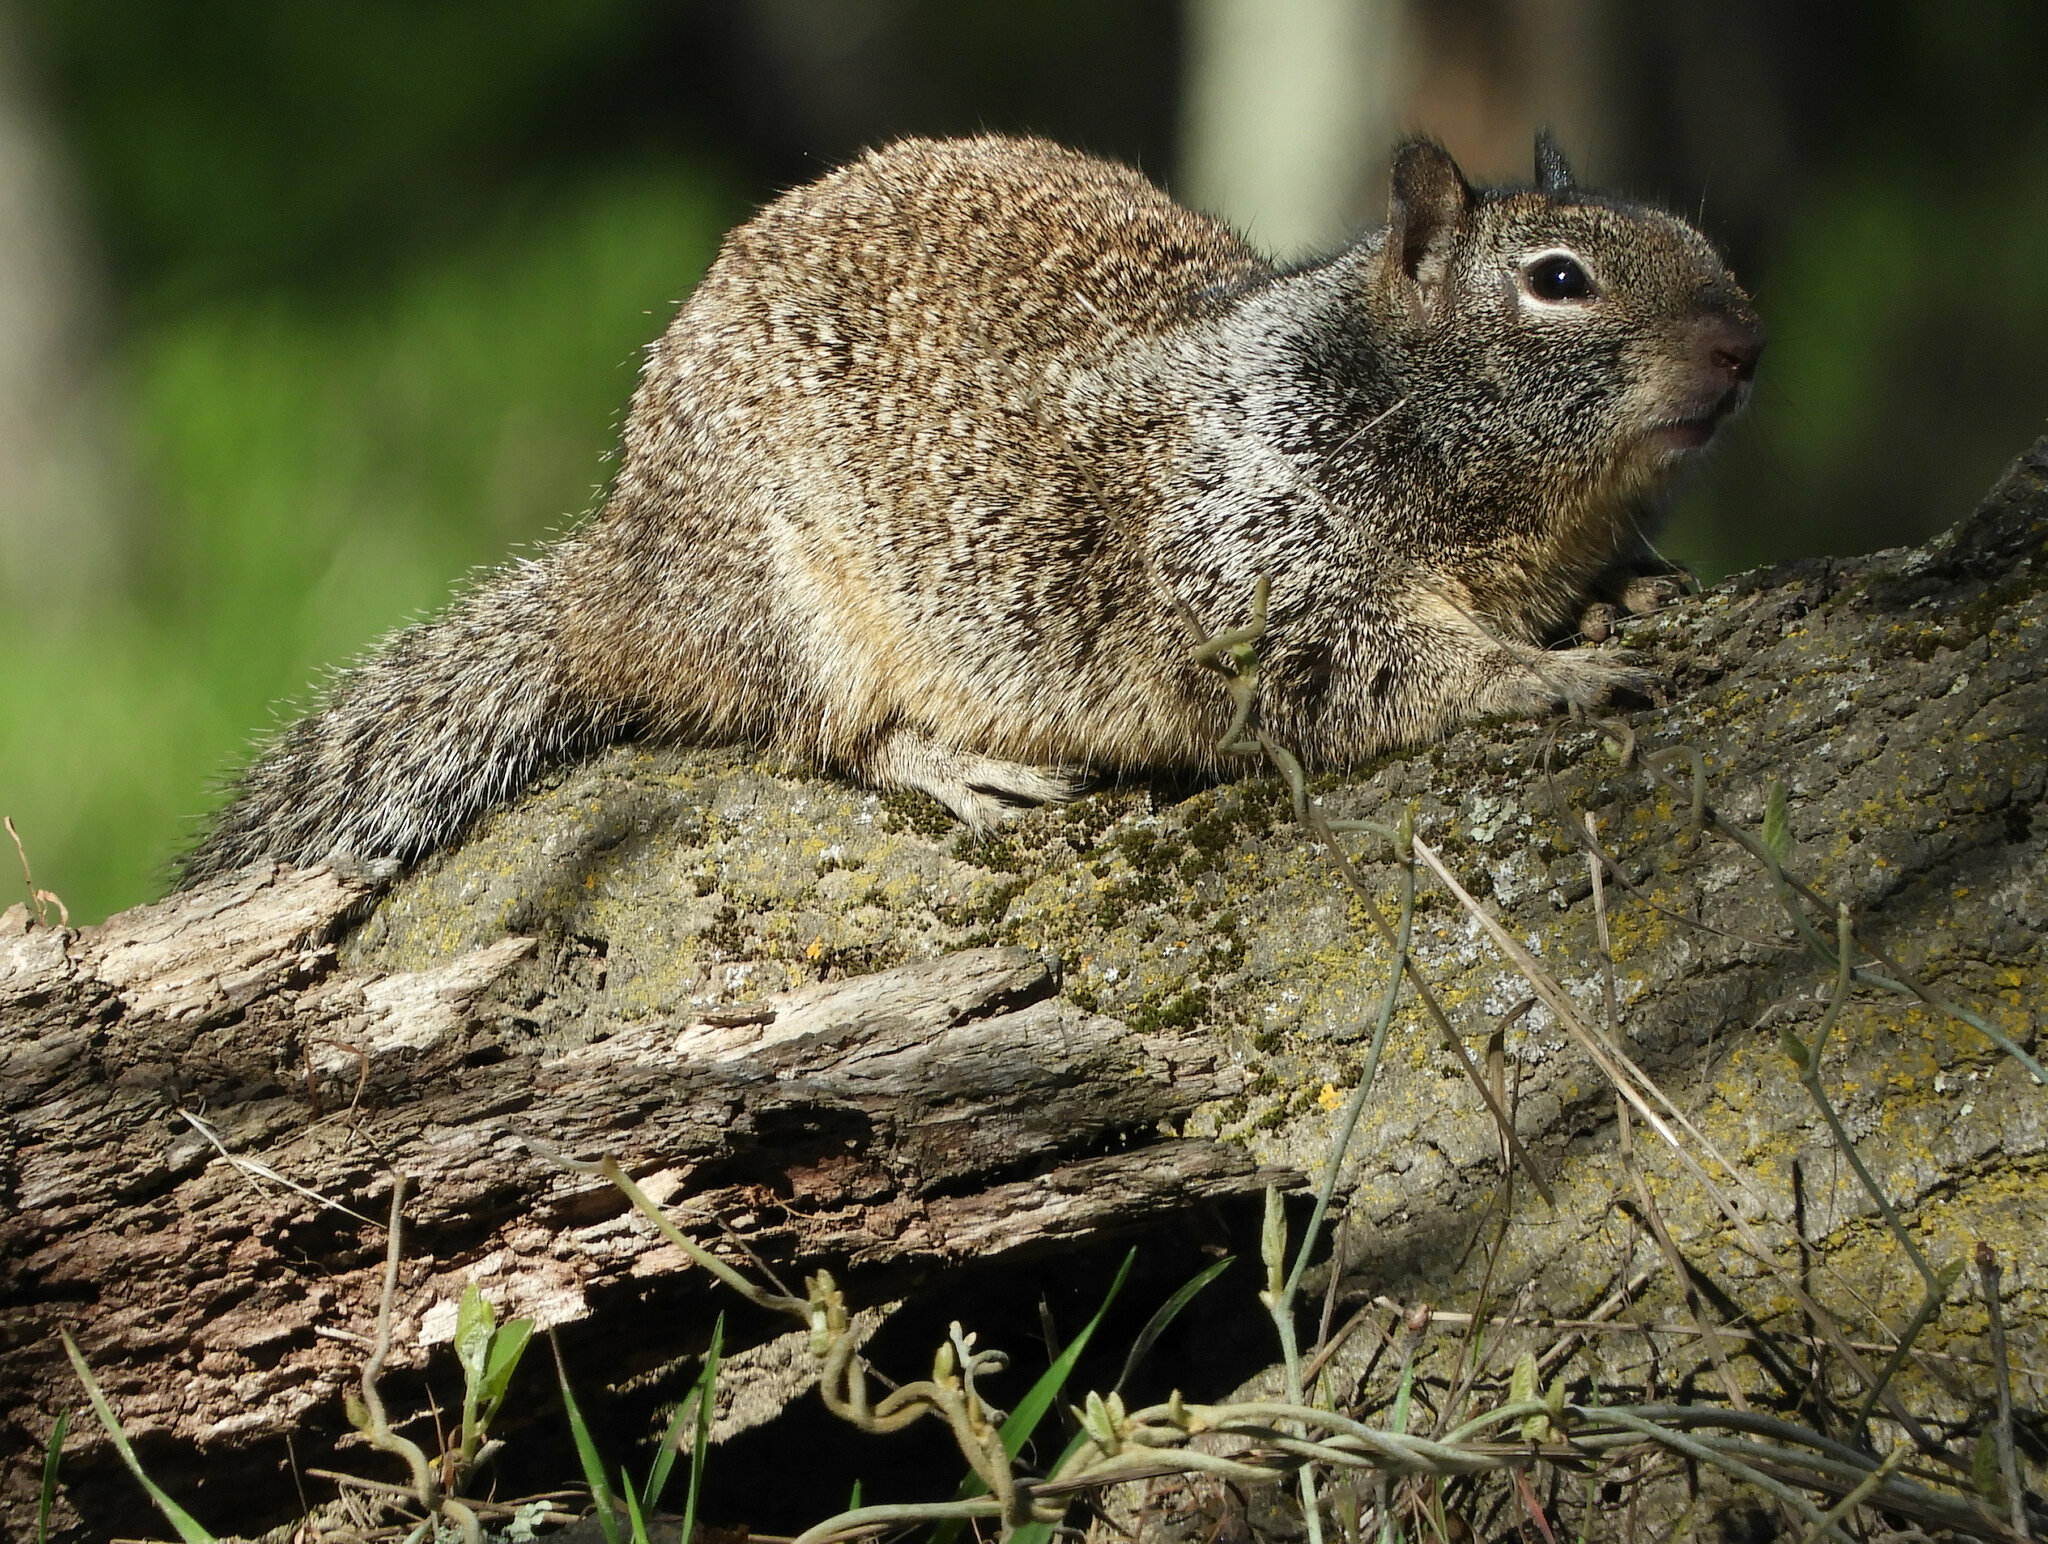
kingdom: Animalia
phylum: Chordata
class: Mammalia
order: Rodentia
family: Sciuridae
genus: Otospermophilus
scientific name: Otospermophilus beecheyi
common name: California ground squirrel
